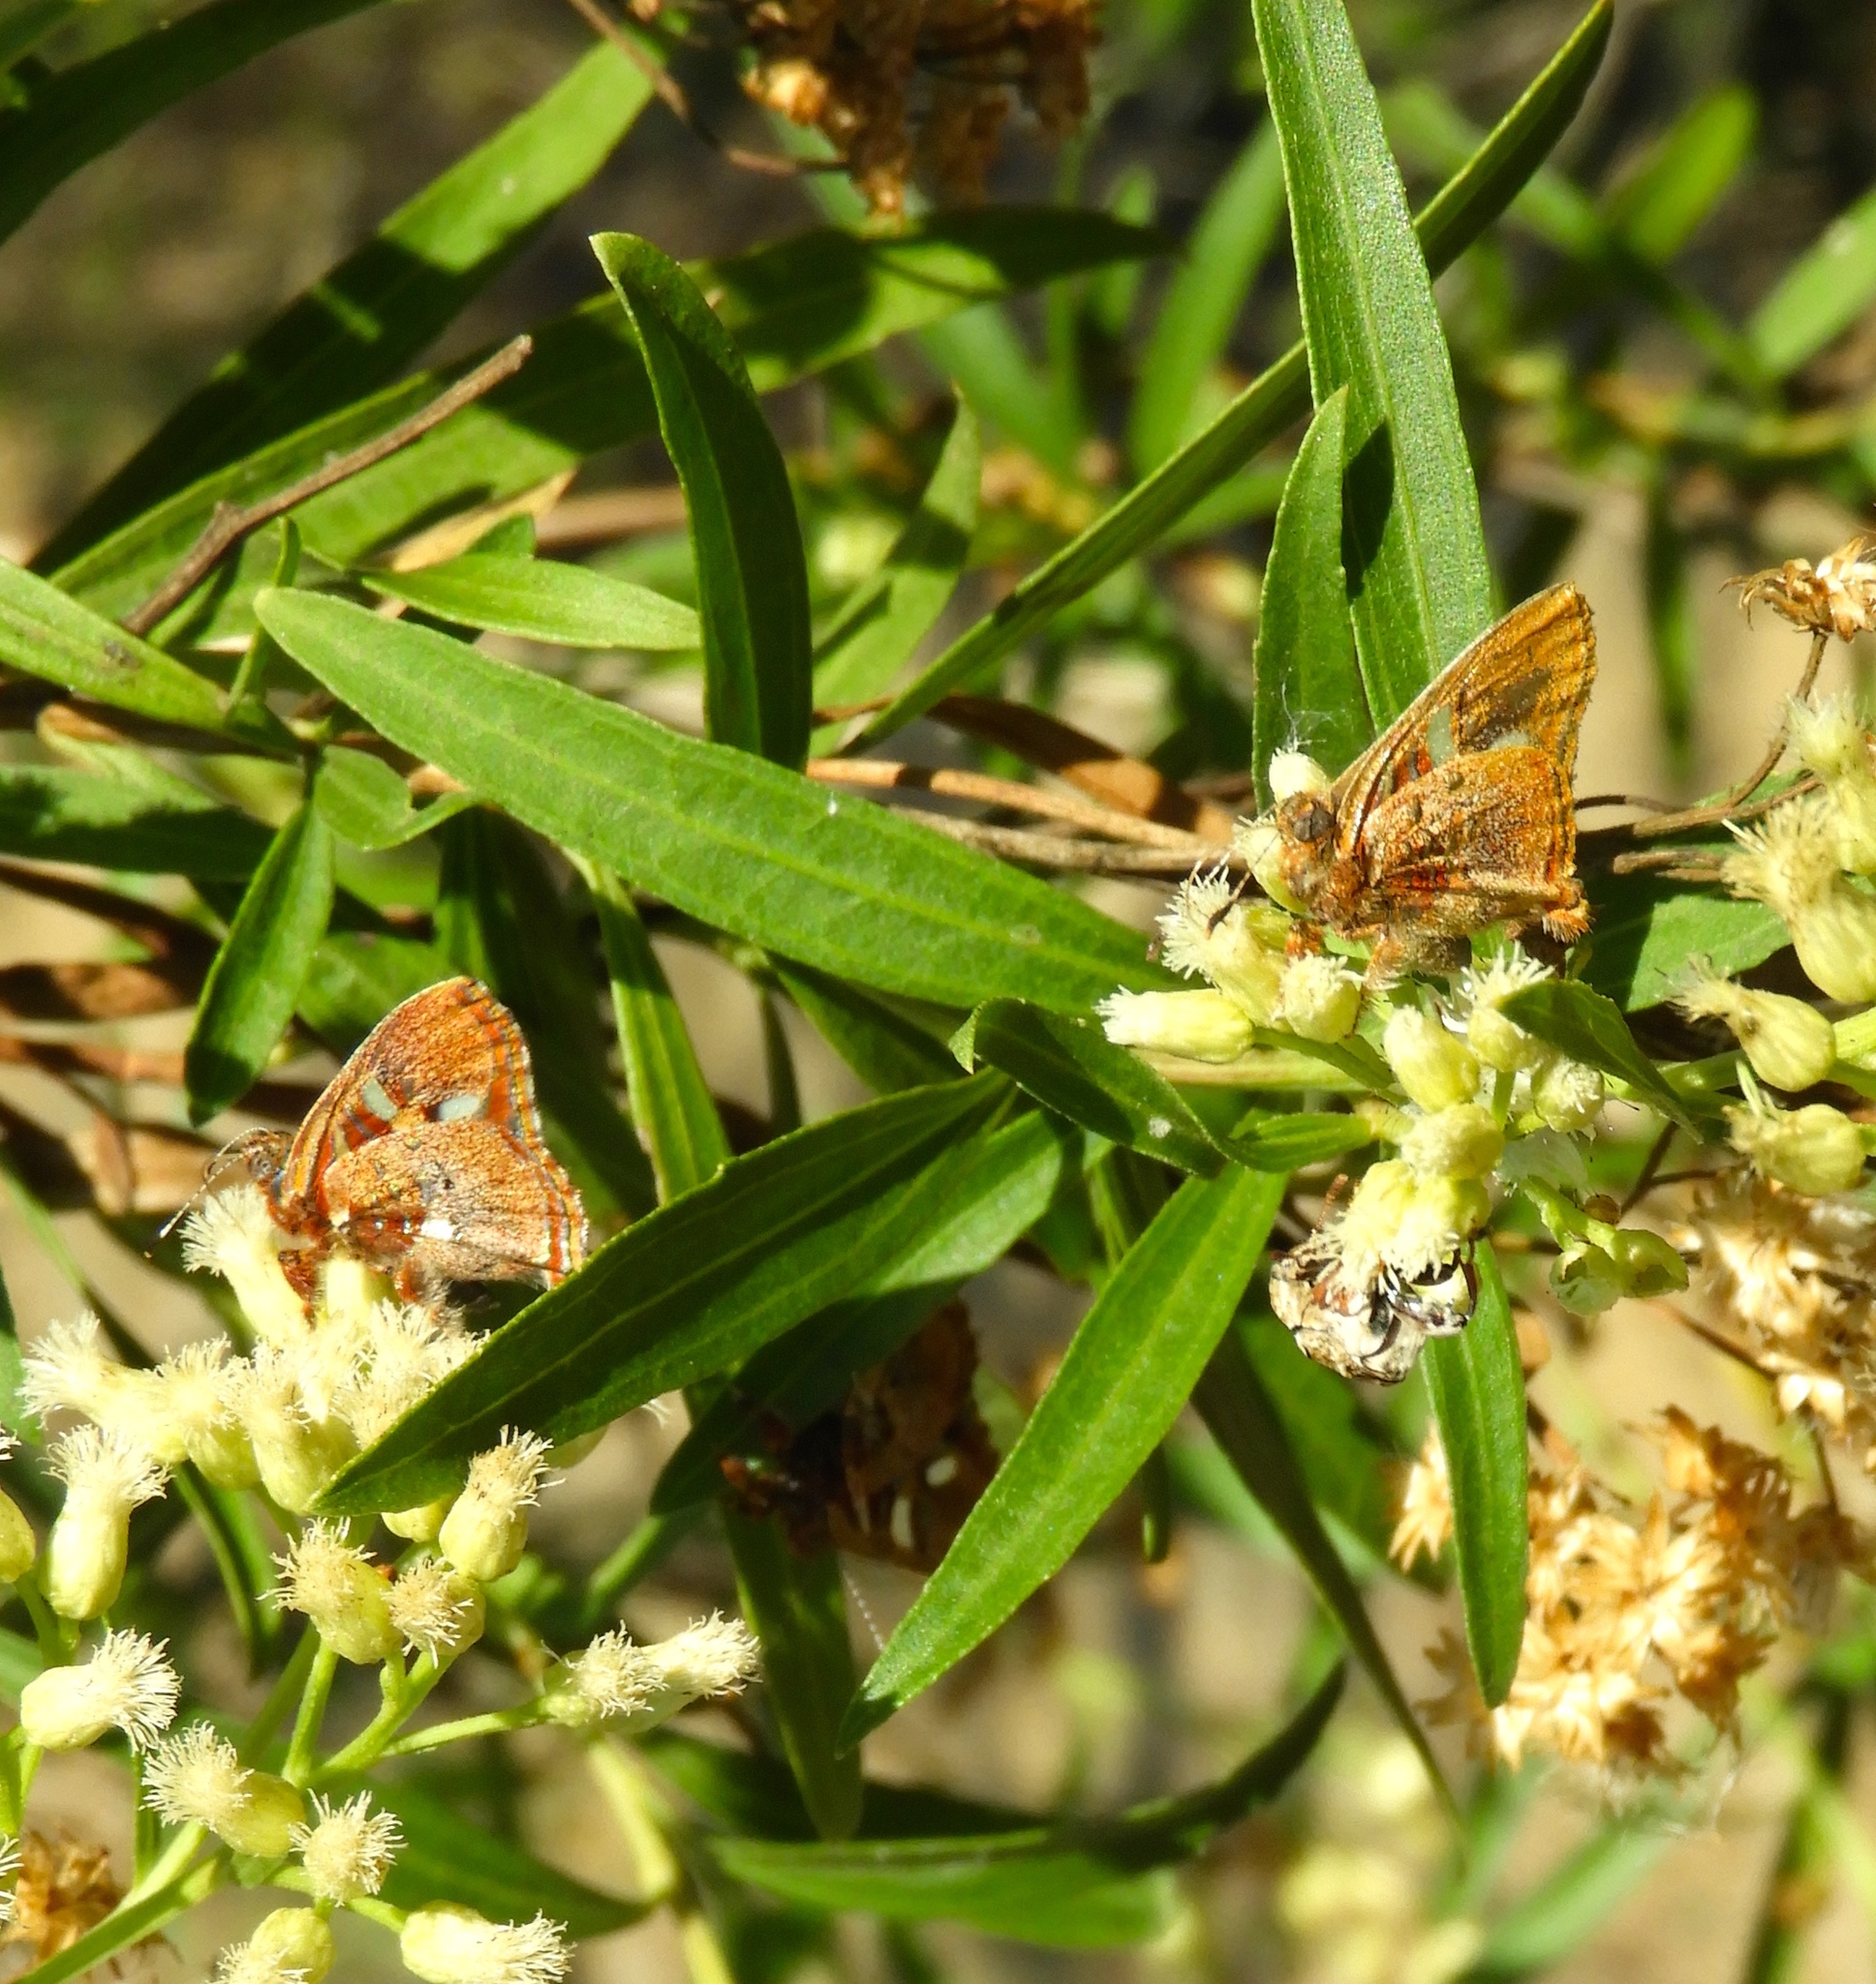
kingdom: Animalia
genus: Anteros
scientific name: Anteros carausius
